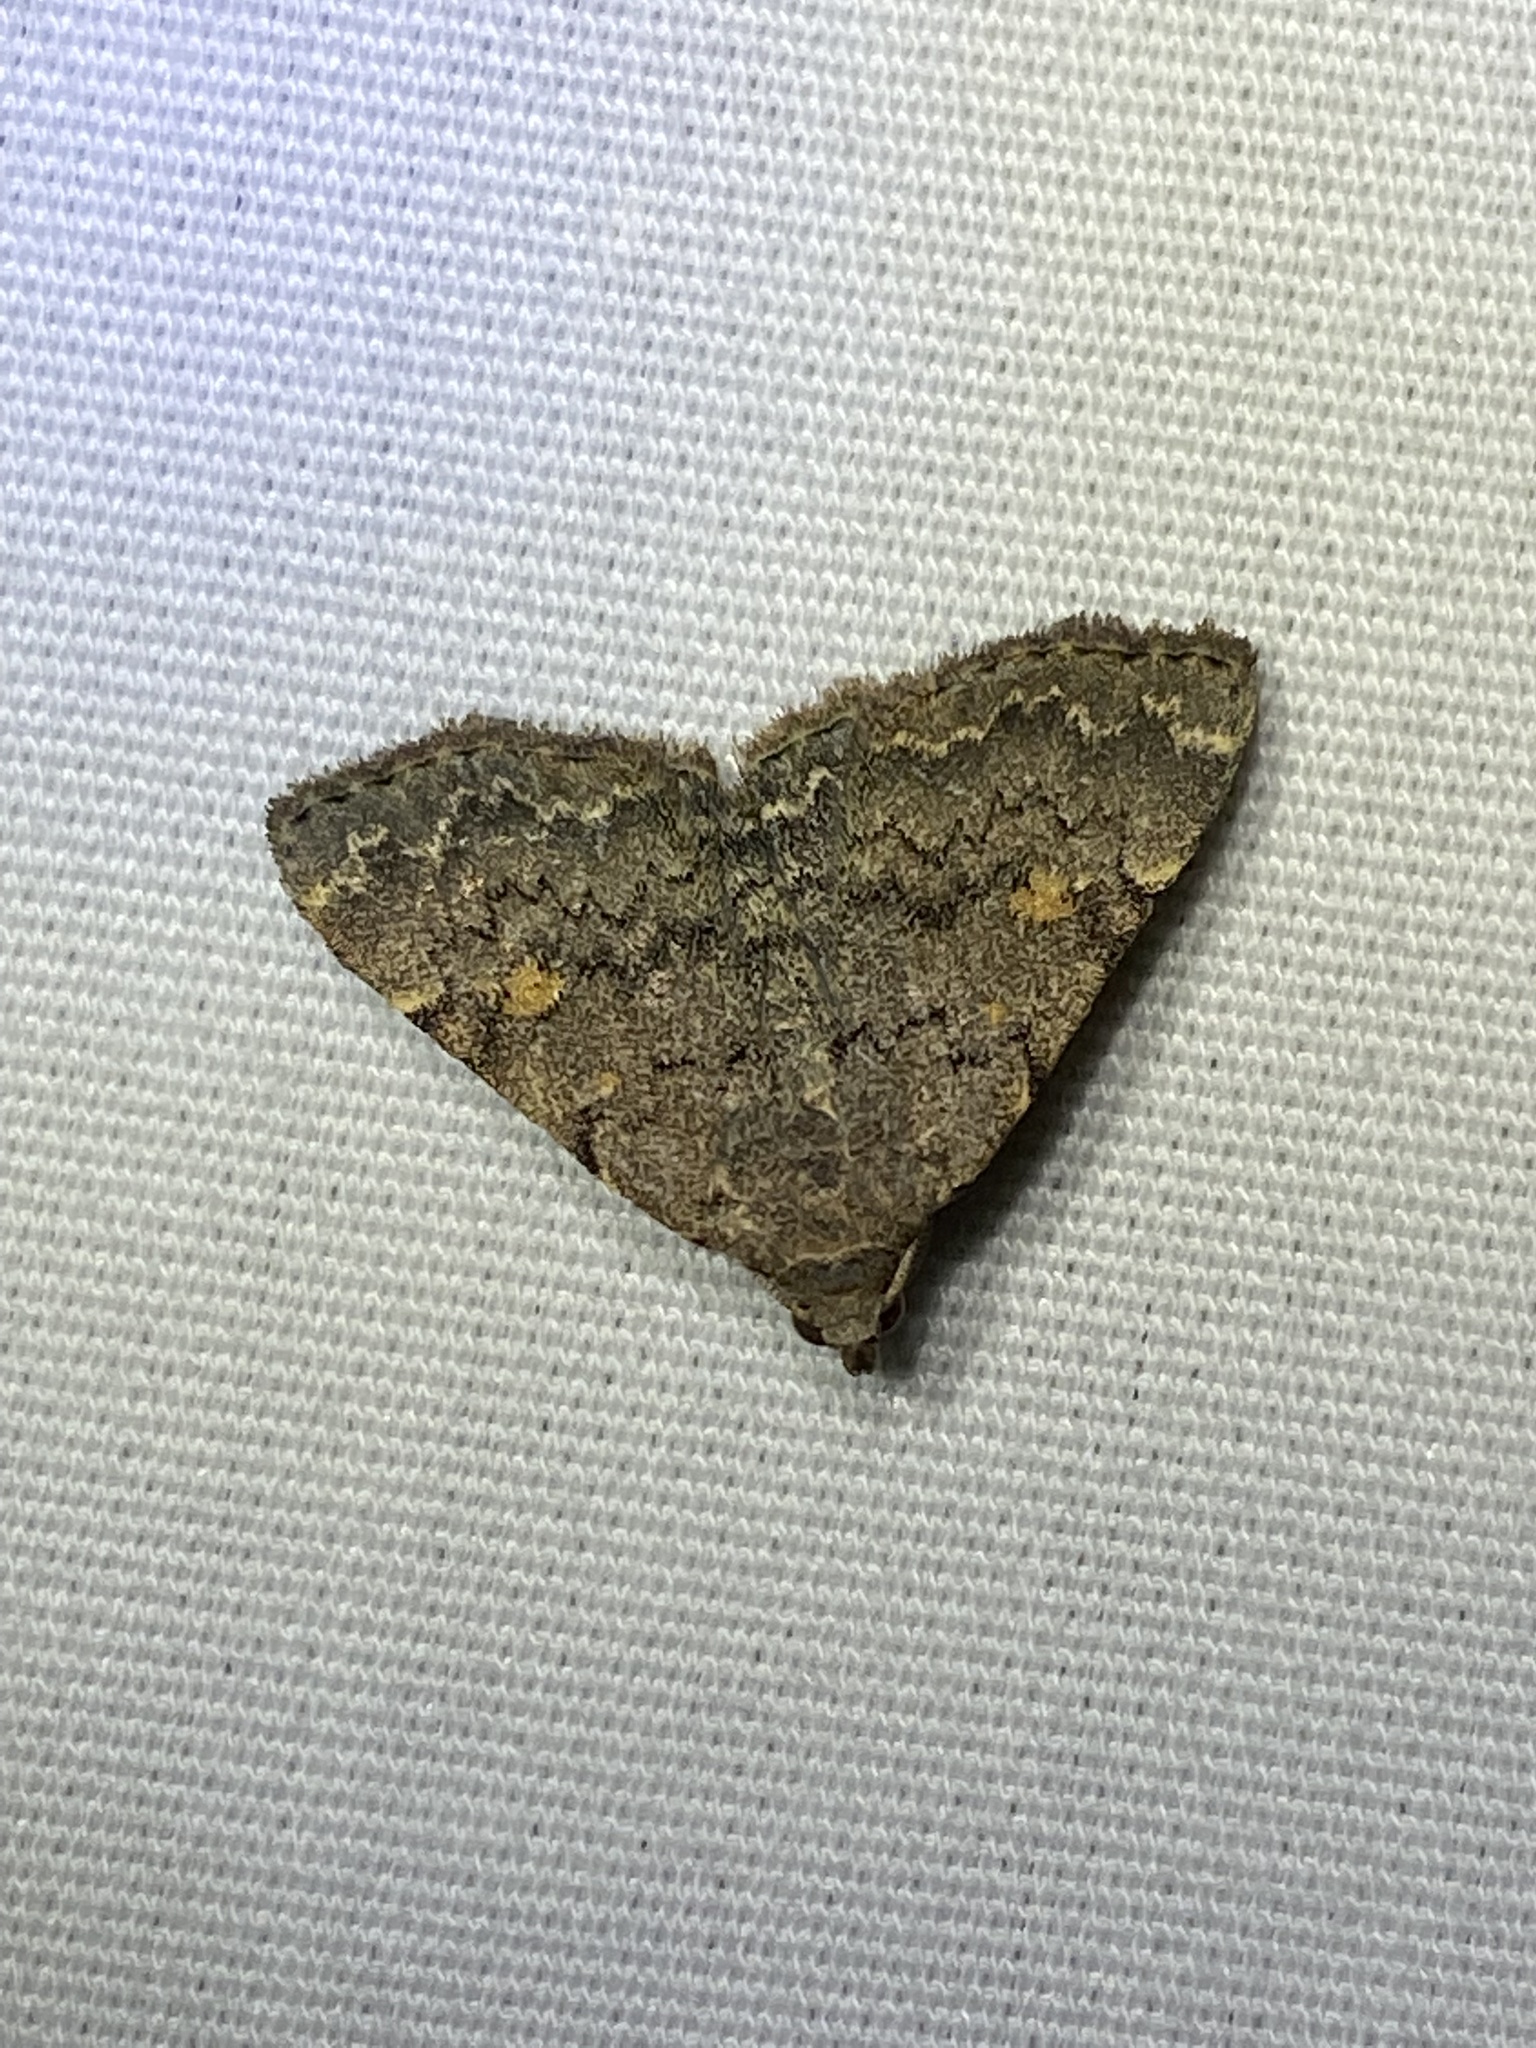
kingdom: Animalia
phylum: Arthropoda
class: Insecta
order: Lepidoptera
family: Erebidae
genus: Idia
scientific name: Idia aemula
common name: Common idia moth
